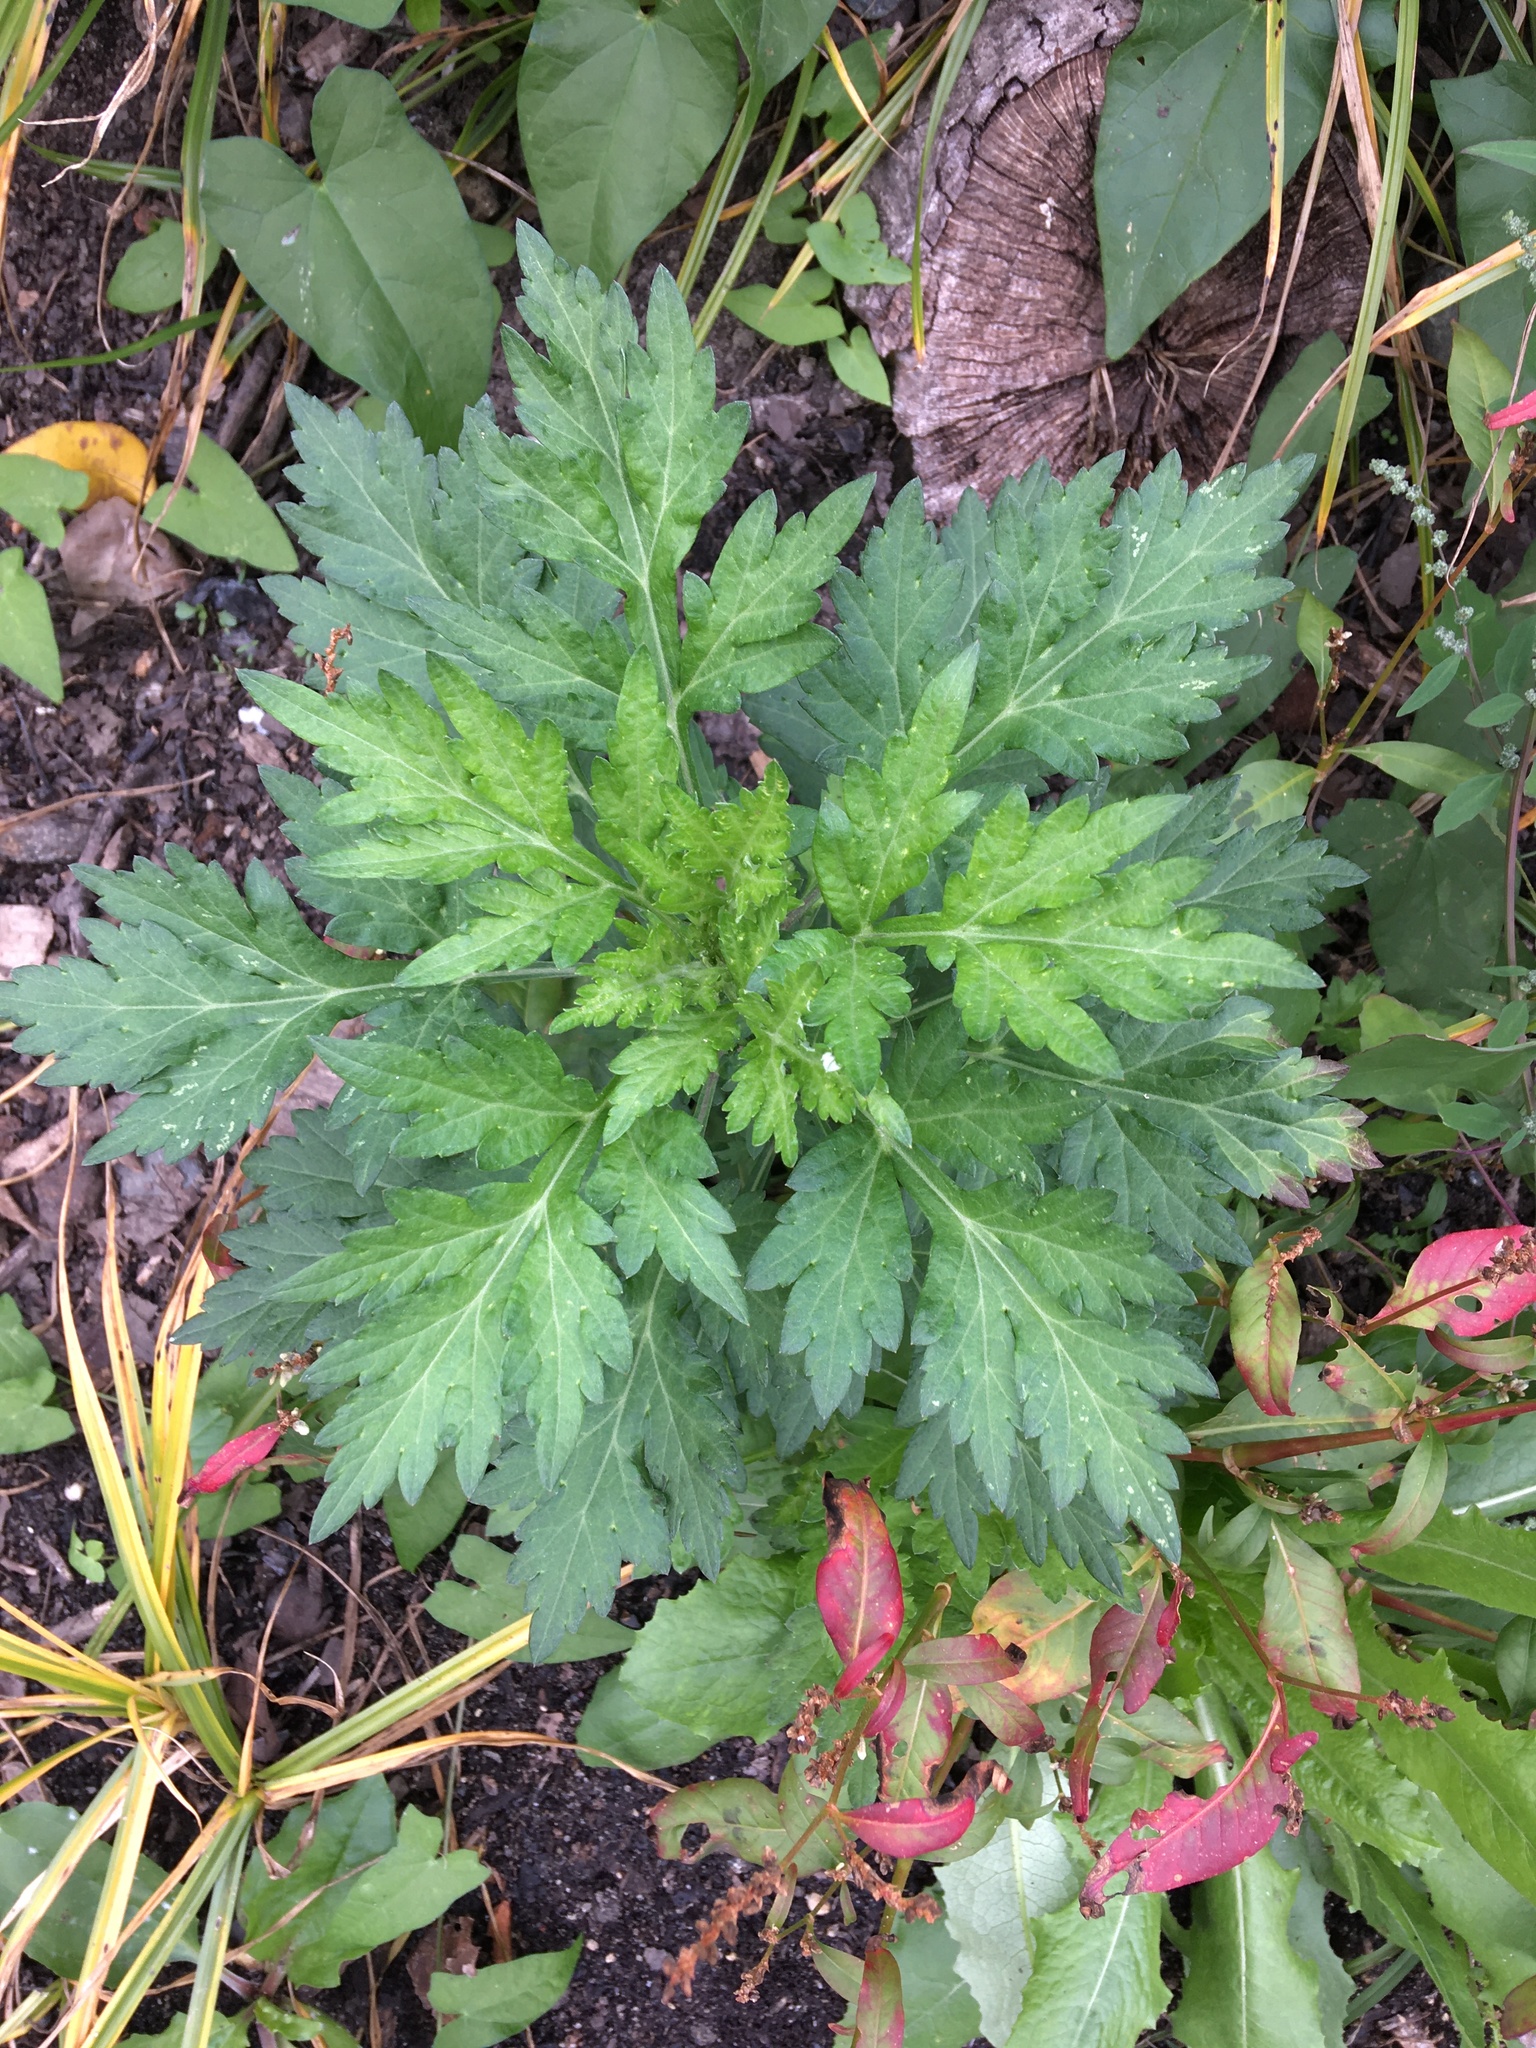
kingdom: Plantae
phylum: Tracheophyta
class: Magnoliopsida
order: Asterales
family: Asteraceae
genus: Artemisia
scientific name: Artemisia vulgaris
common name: Mugwort
